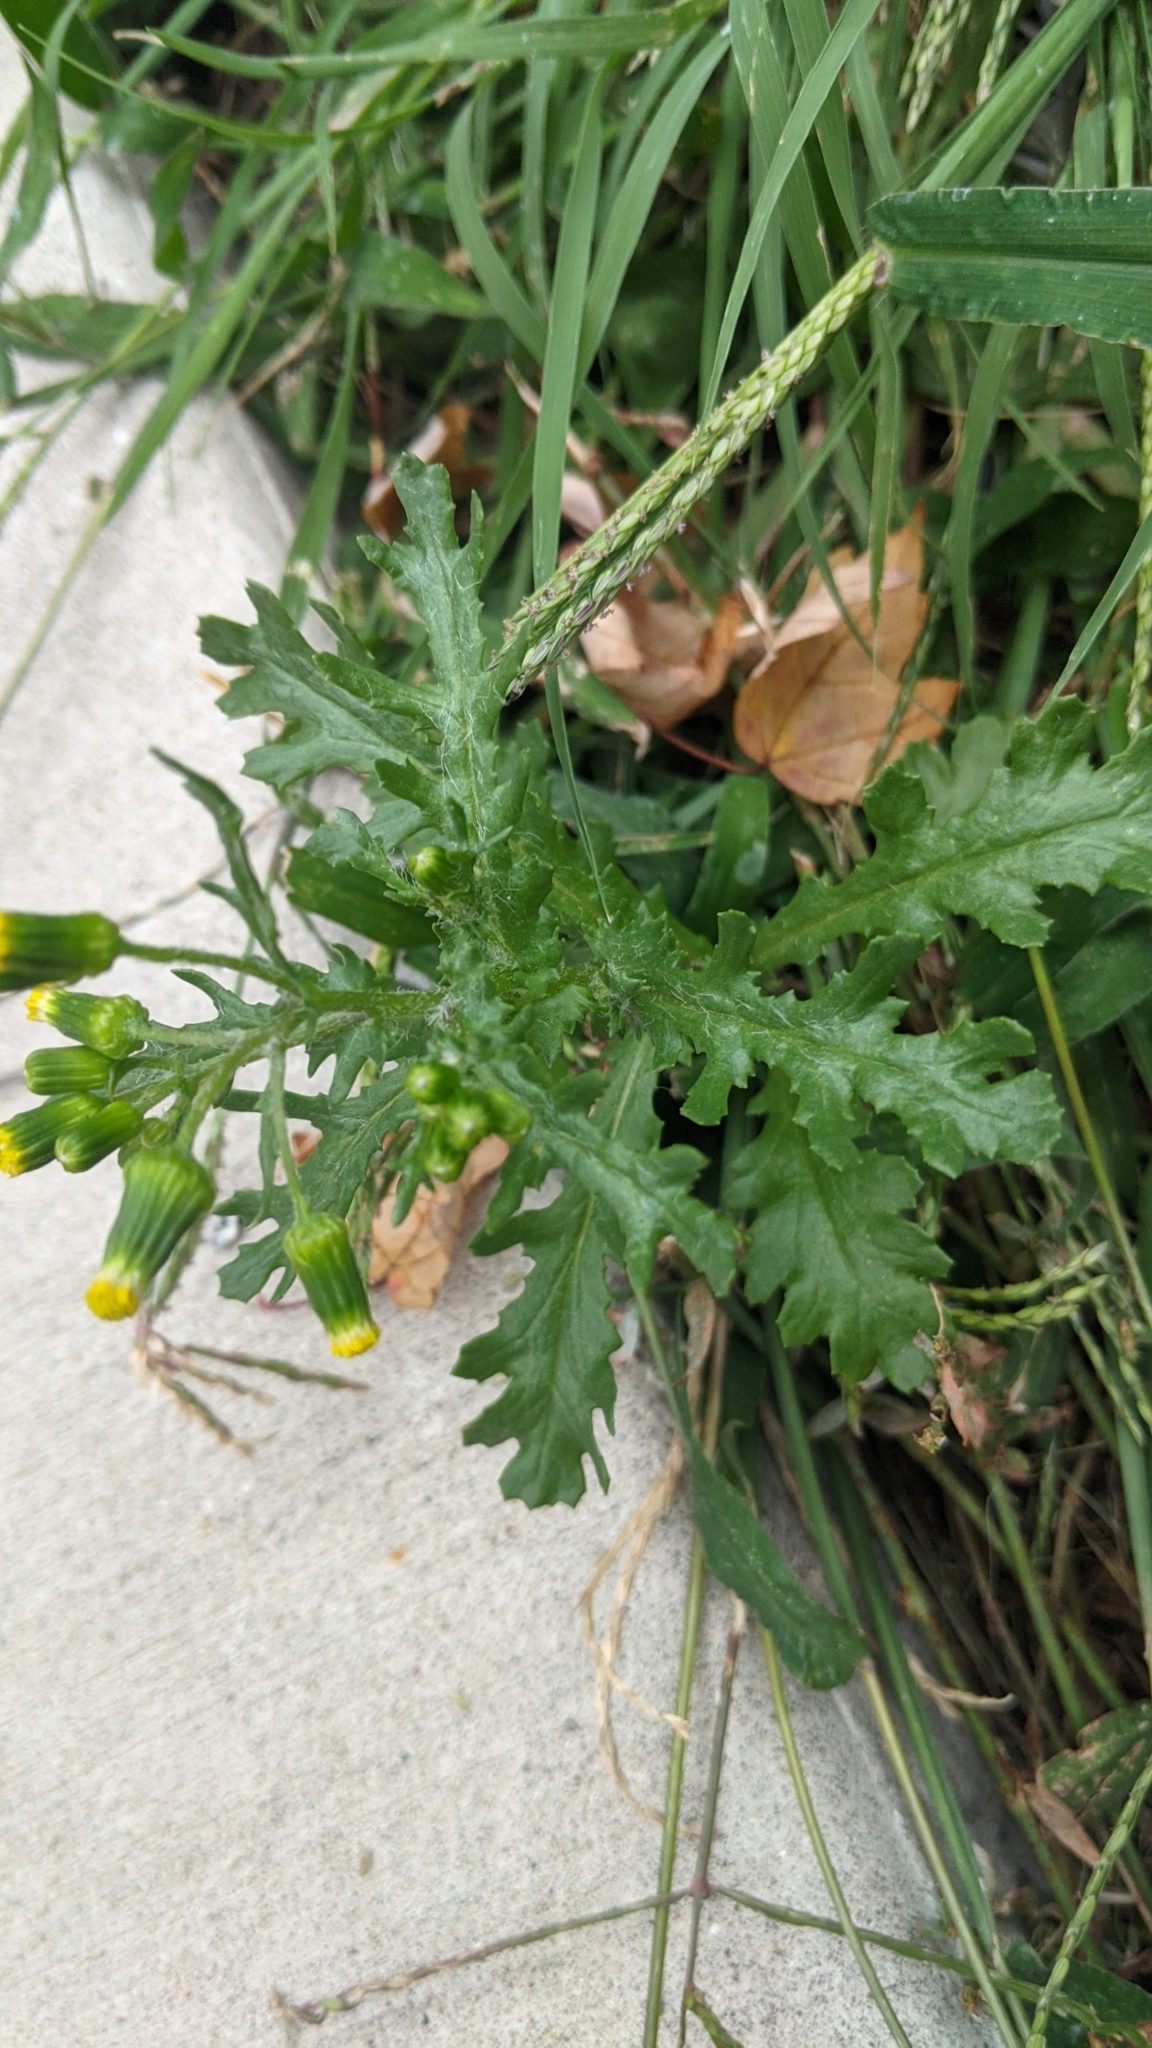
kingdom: Plantae
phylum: Tracheophyta
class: Magnoliopsida
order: Asterales
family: Asteraceae
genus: Senecio
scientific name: Senecio vulgaris
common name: Old-man-in-the-spring
